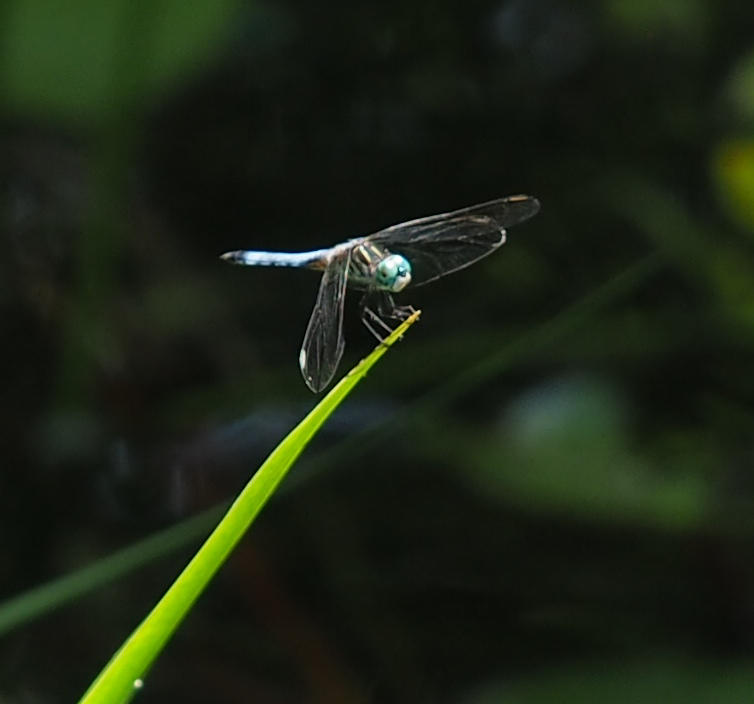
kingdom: Animalia
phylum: Arthropoda
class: Insecta
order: Odonata
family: Libellulidae
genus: Pachydiplax
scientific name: Pachydiplax longipennis
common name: Blue dasher
